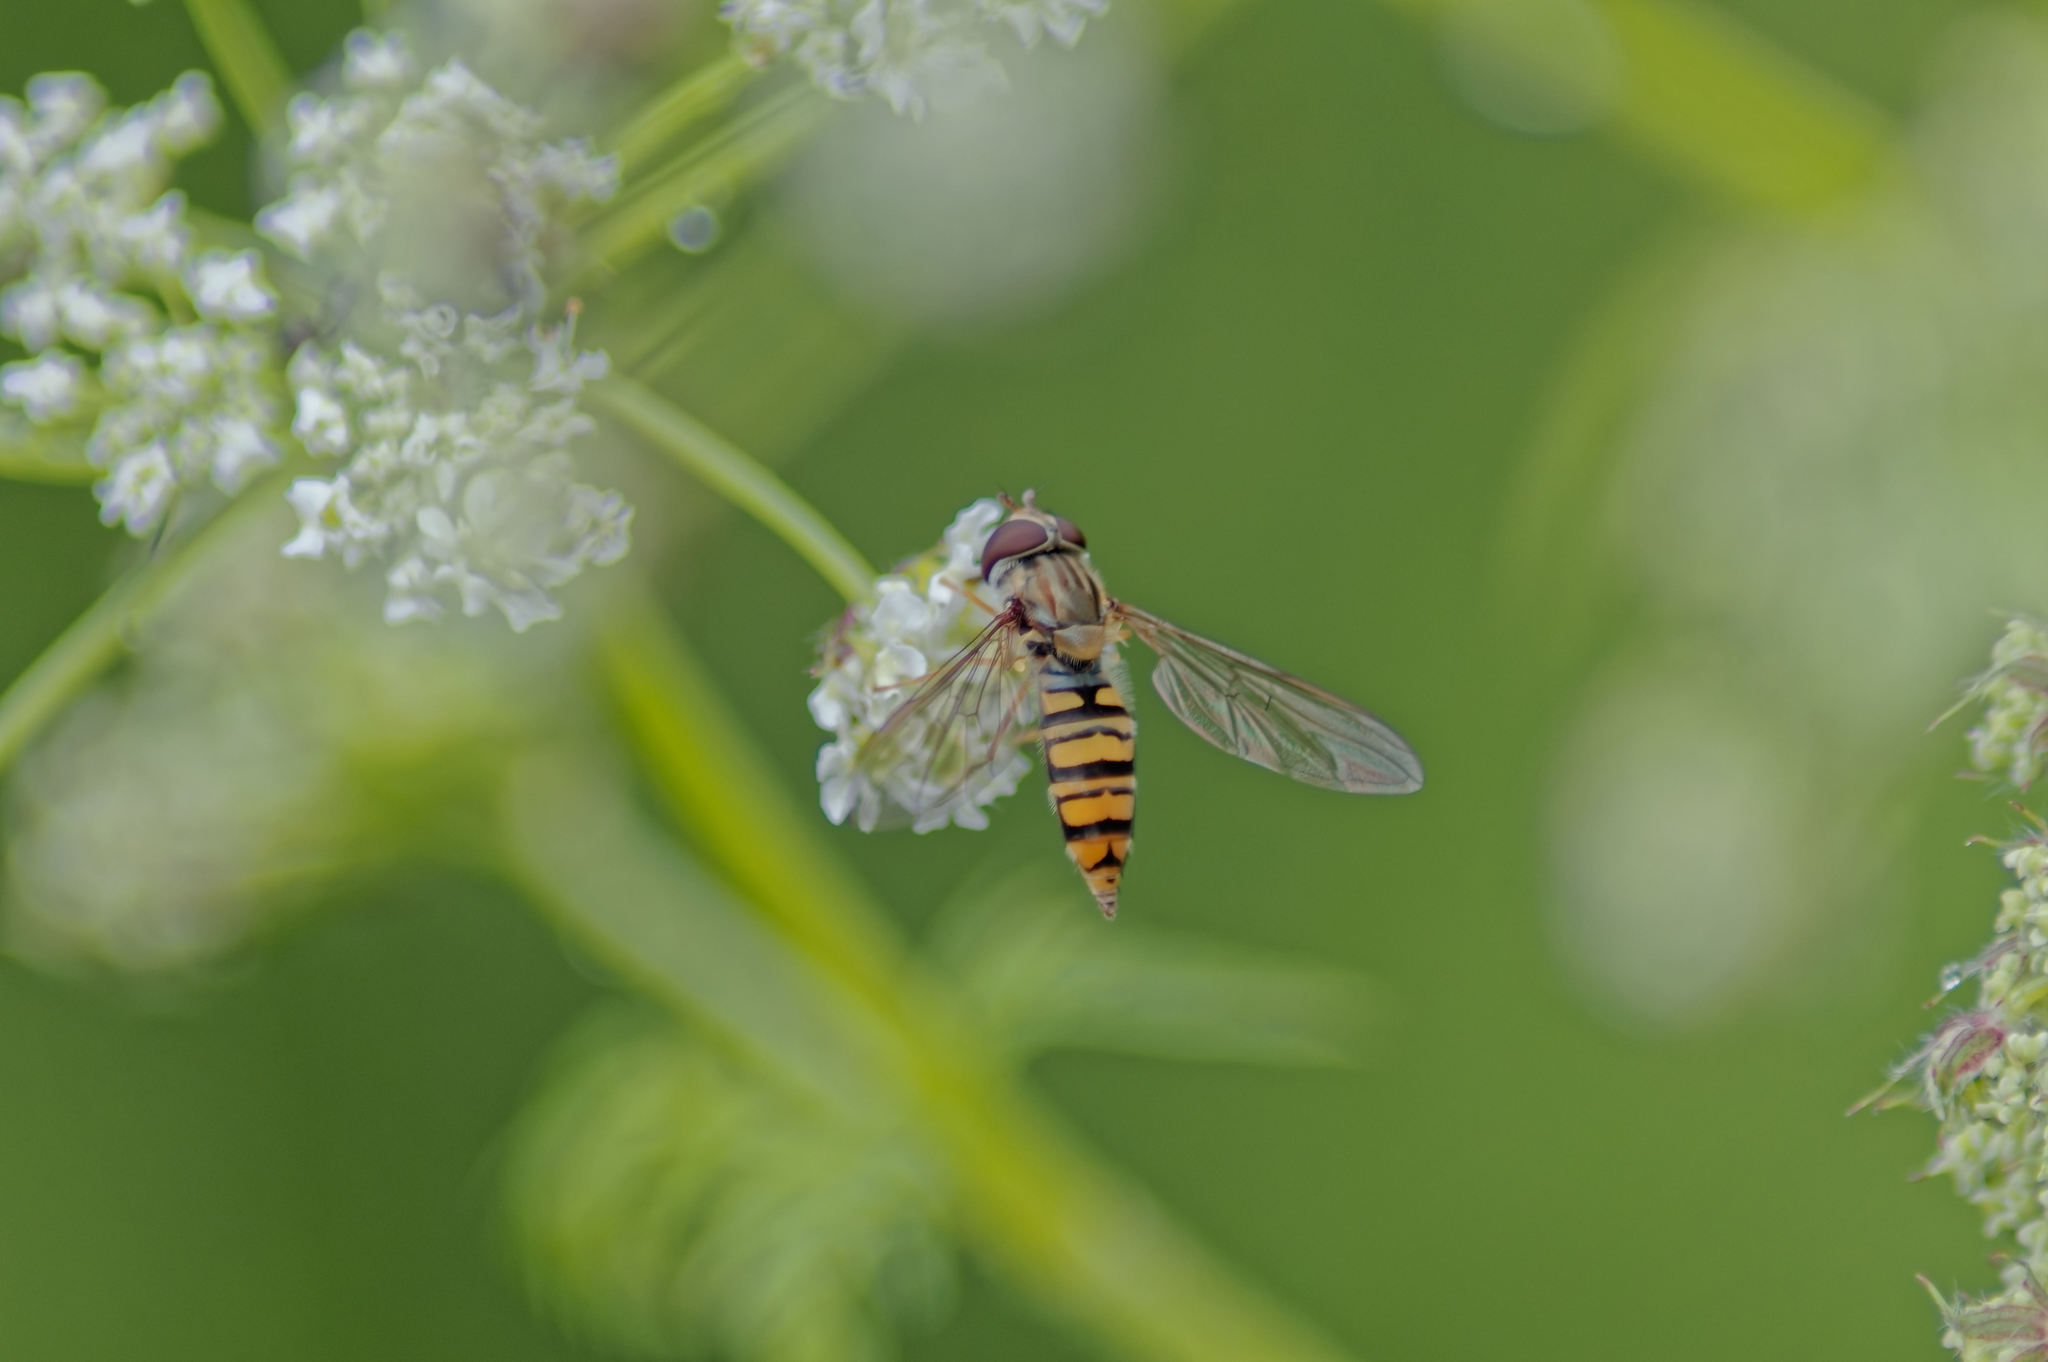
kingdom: Animalia
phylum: Arthropoda
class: Insecta
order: Diptera
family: Syrphidae
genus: Episyrphus
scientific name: Episyrphus balteatus
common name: Marmalade hoverfly
